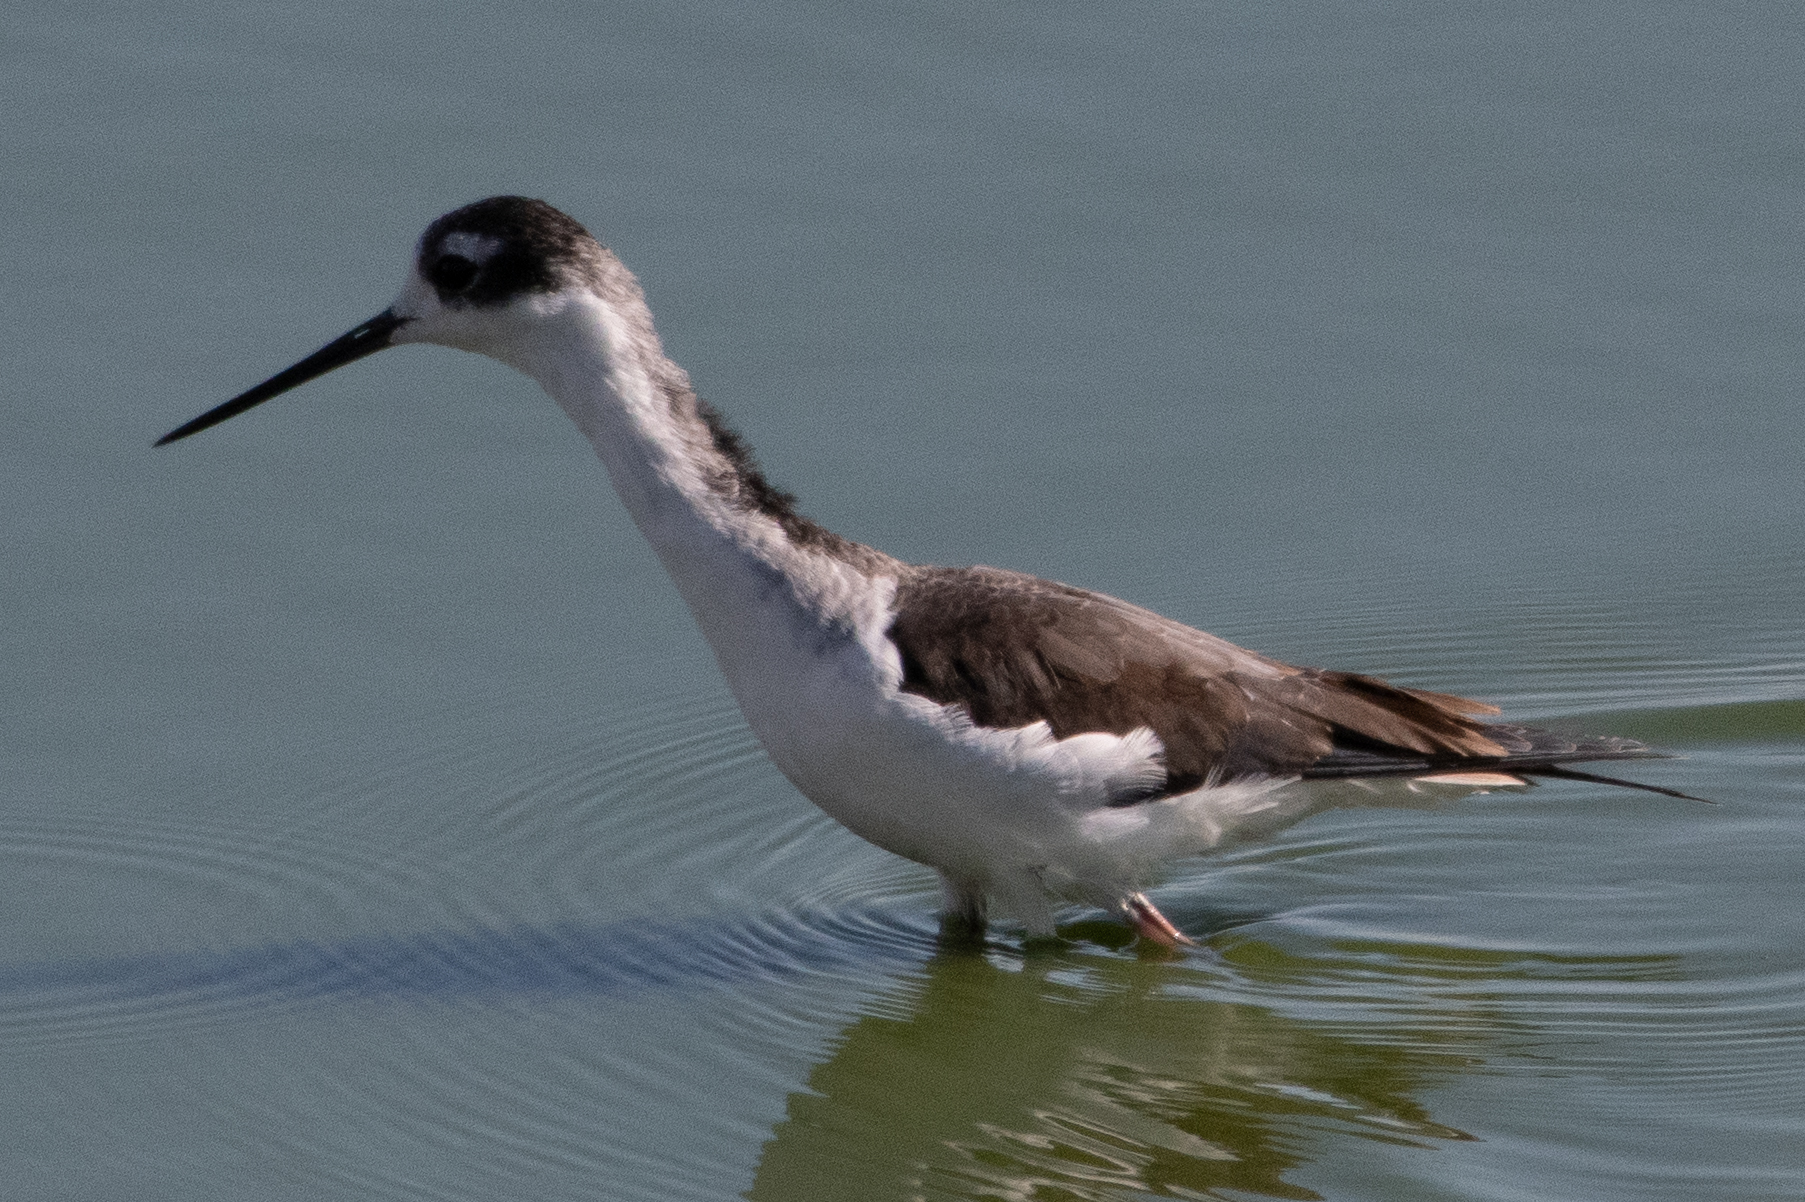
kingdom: Animalia
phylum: Chordata
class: Aves
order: Charadriiformes
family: Recurvirostridae
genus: Himantopus
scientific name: Himantopus mexicanus
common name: Black-necked stilt
